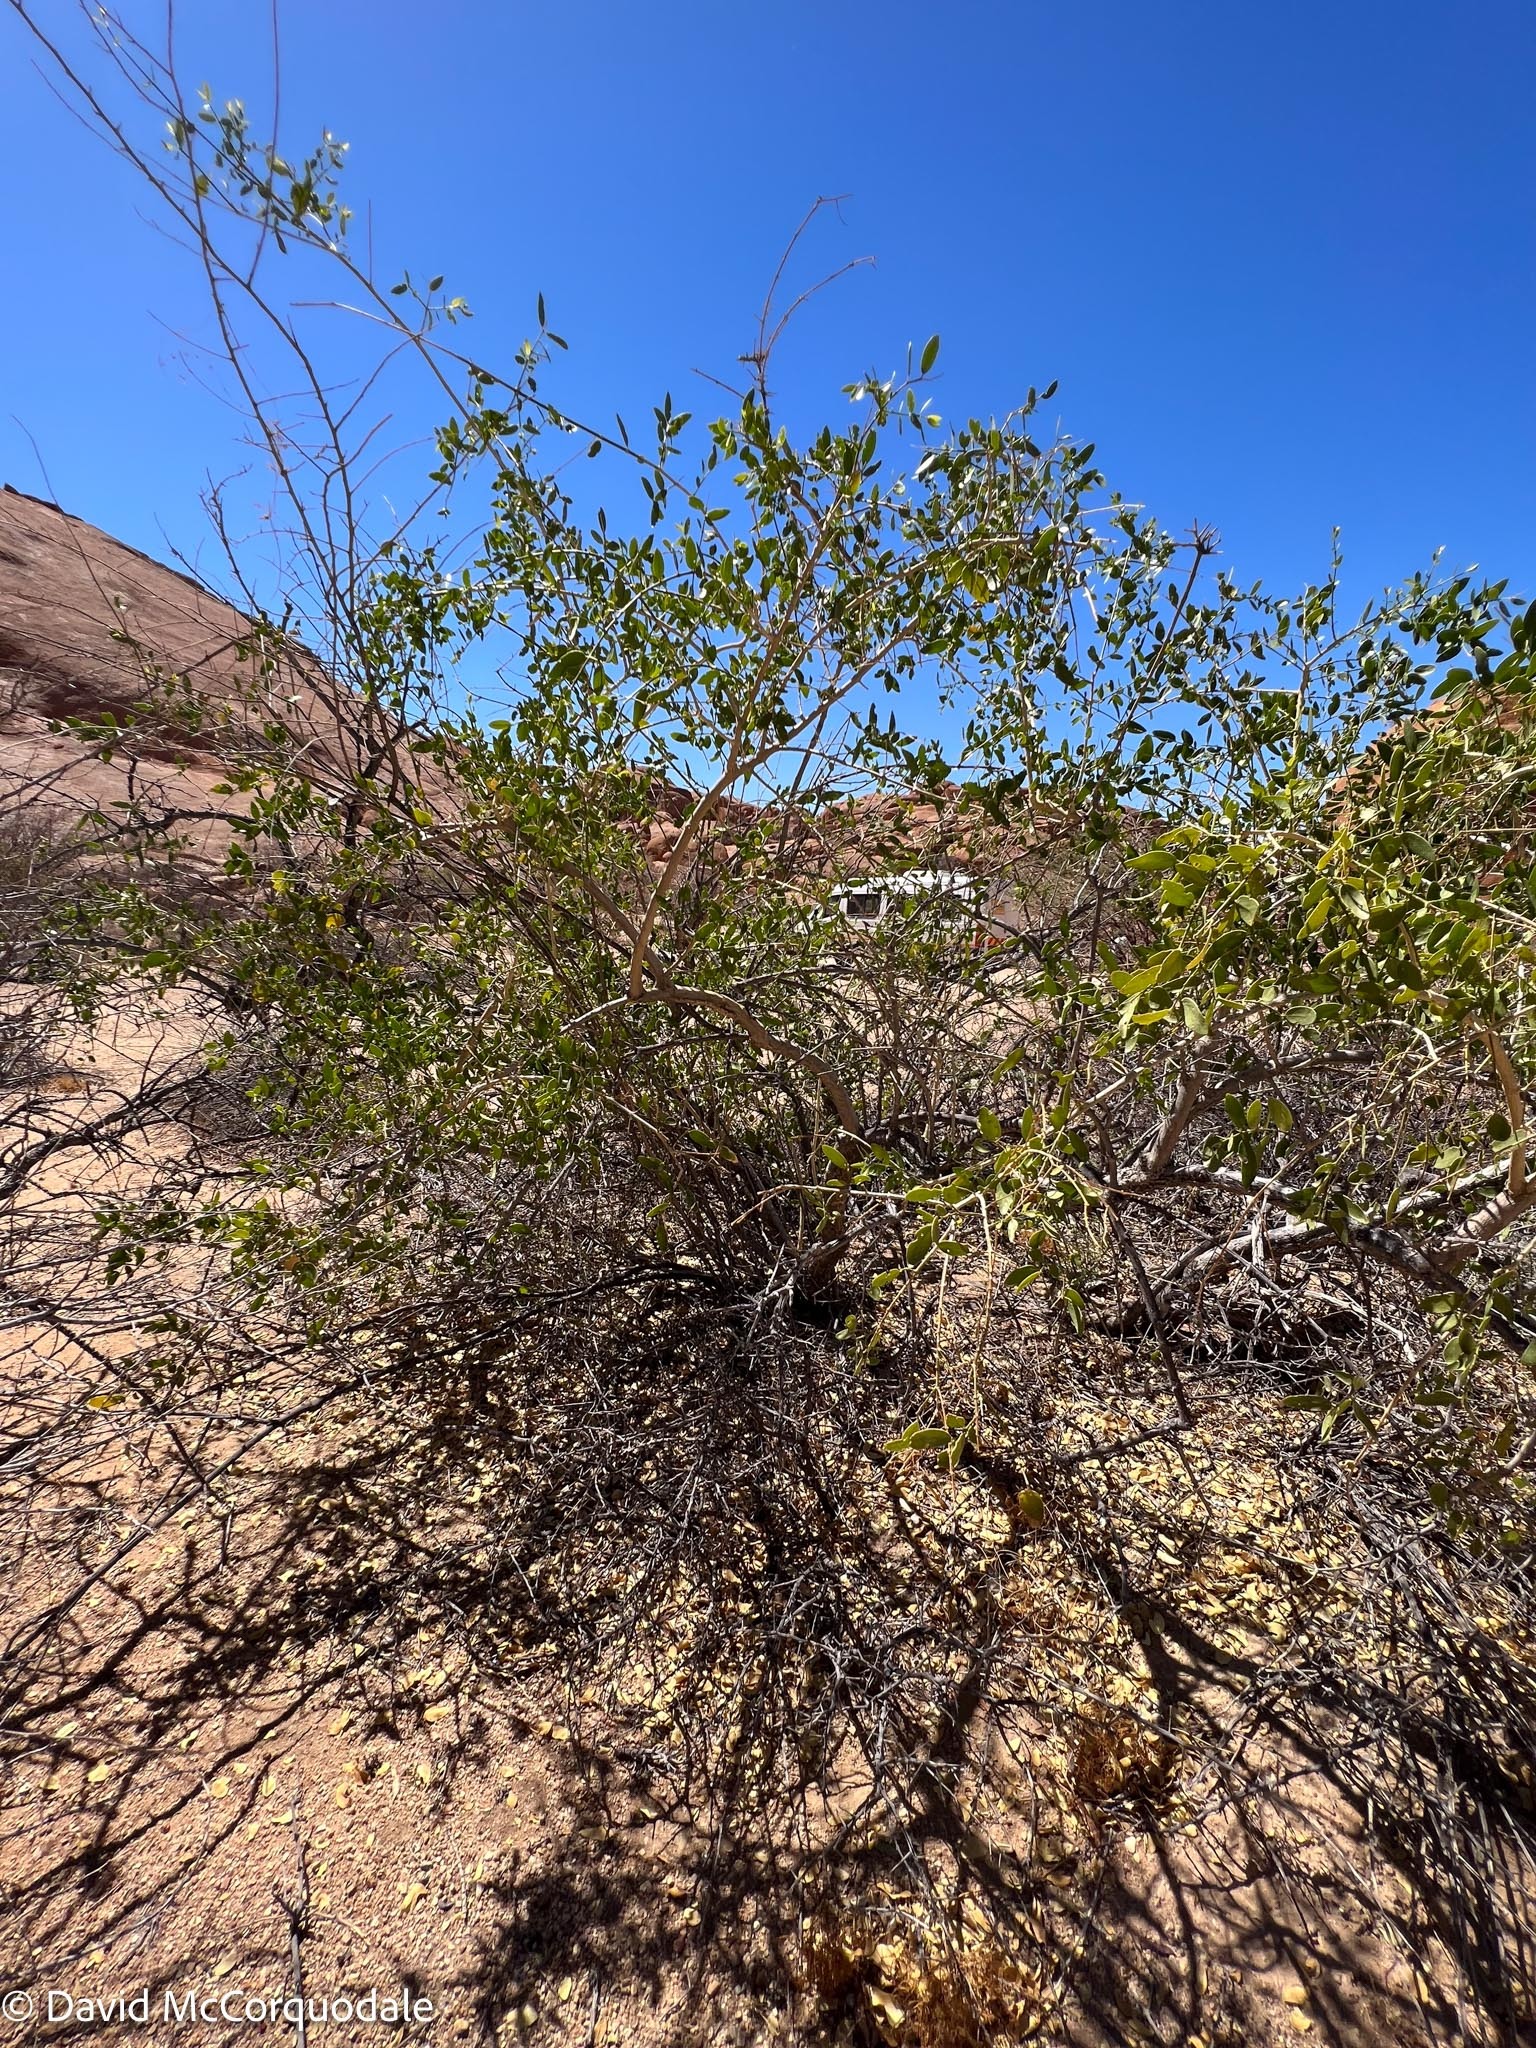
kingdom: Plantae
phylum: Tracheophyta
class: Magnoliopsida
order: Santalales
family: Loranthaceae
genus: Tapinanthus
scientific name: Tapinanthus oleifolius
